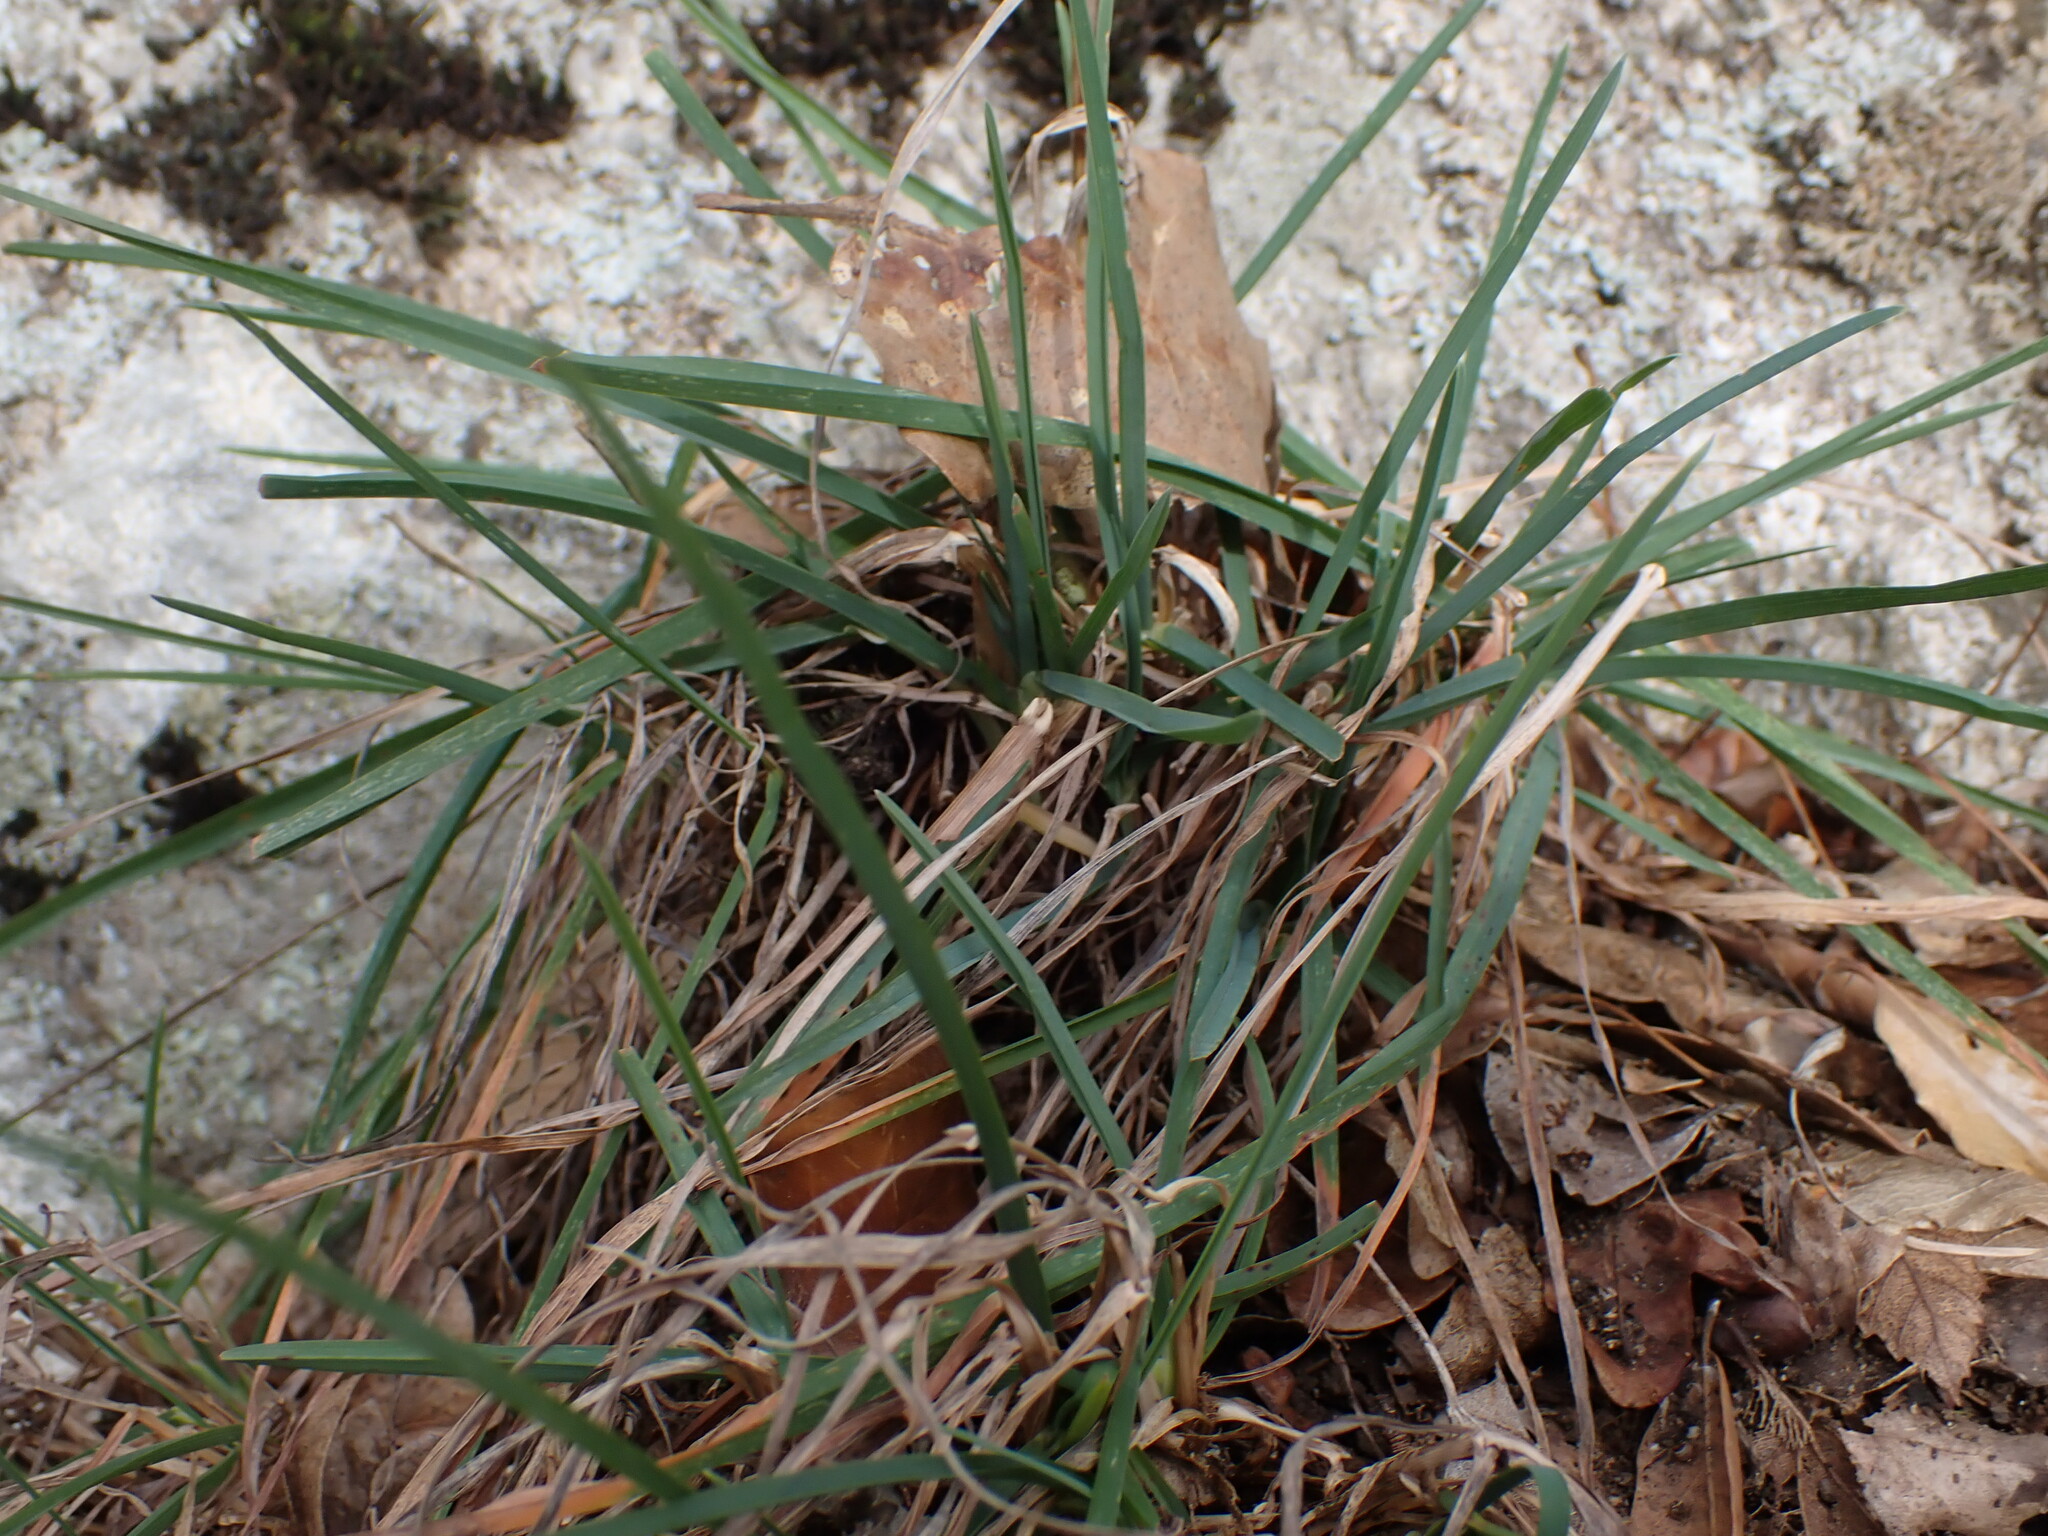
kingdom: Plantae
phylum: Tracheophyta
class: Liliopsida
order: Poales
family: Poaceae
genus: Dactylis
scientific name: Dactylis glomerata
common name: Orchardgrass
